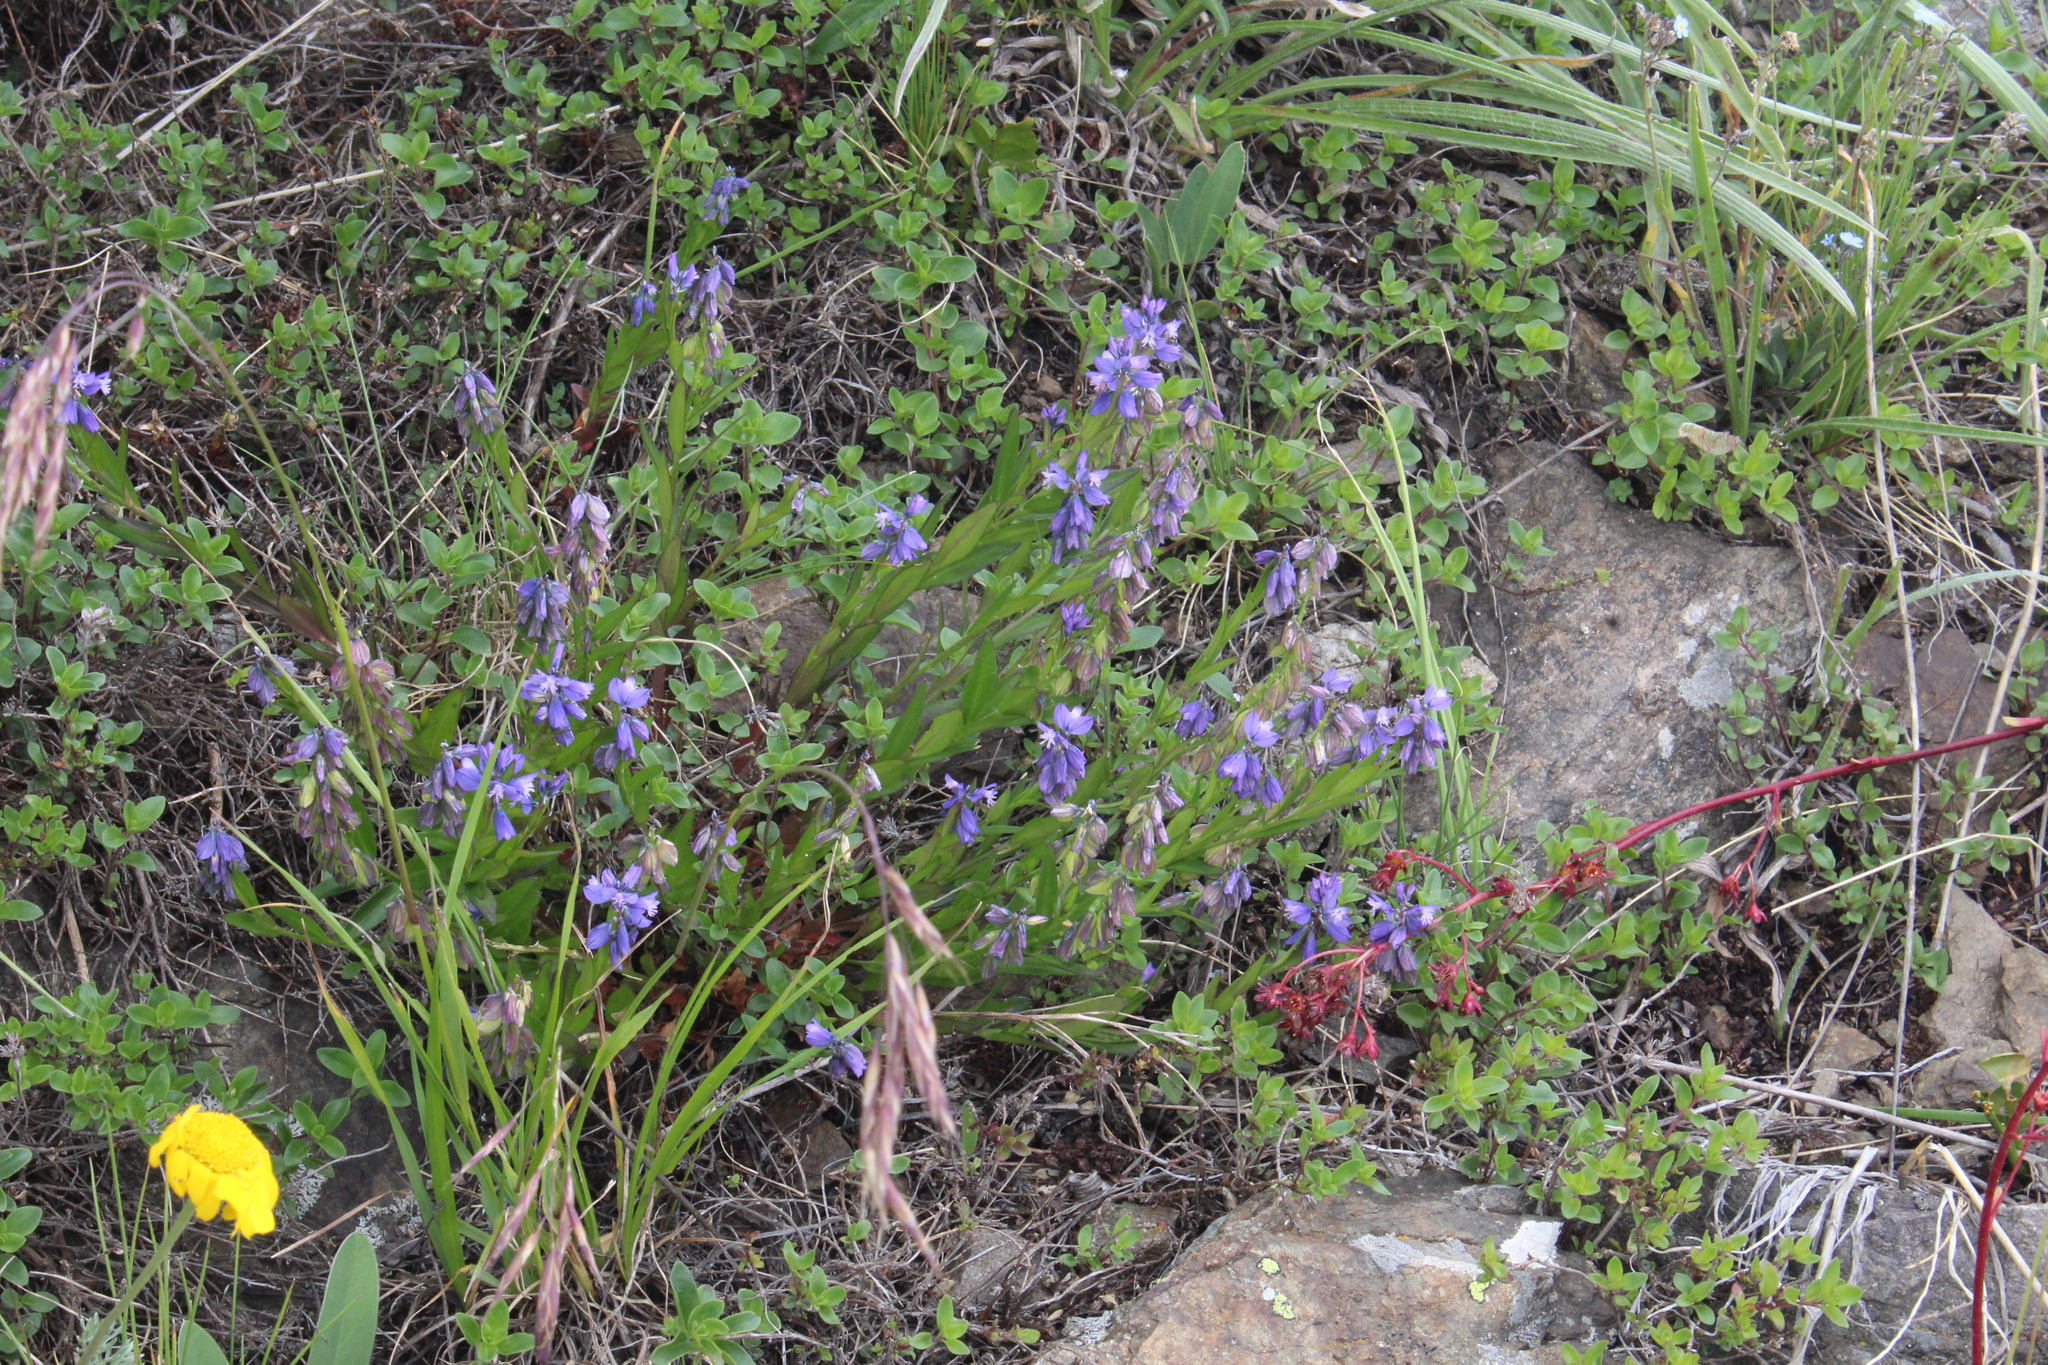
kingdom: Plantae
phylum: Tracheophyta
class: Magnoliopsida
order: Fabales
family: Polygalaceae
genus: Polygala
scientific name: Polygala alpicola
